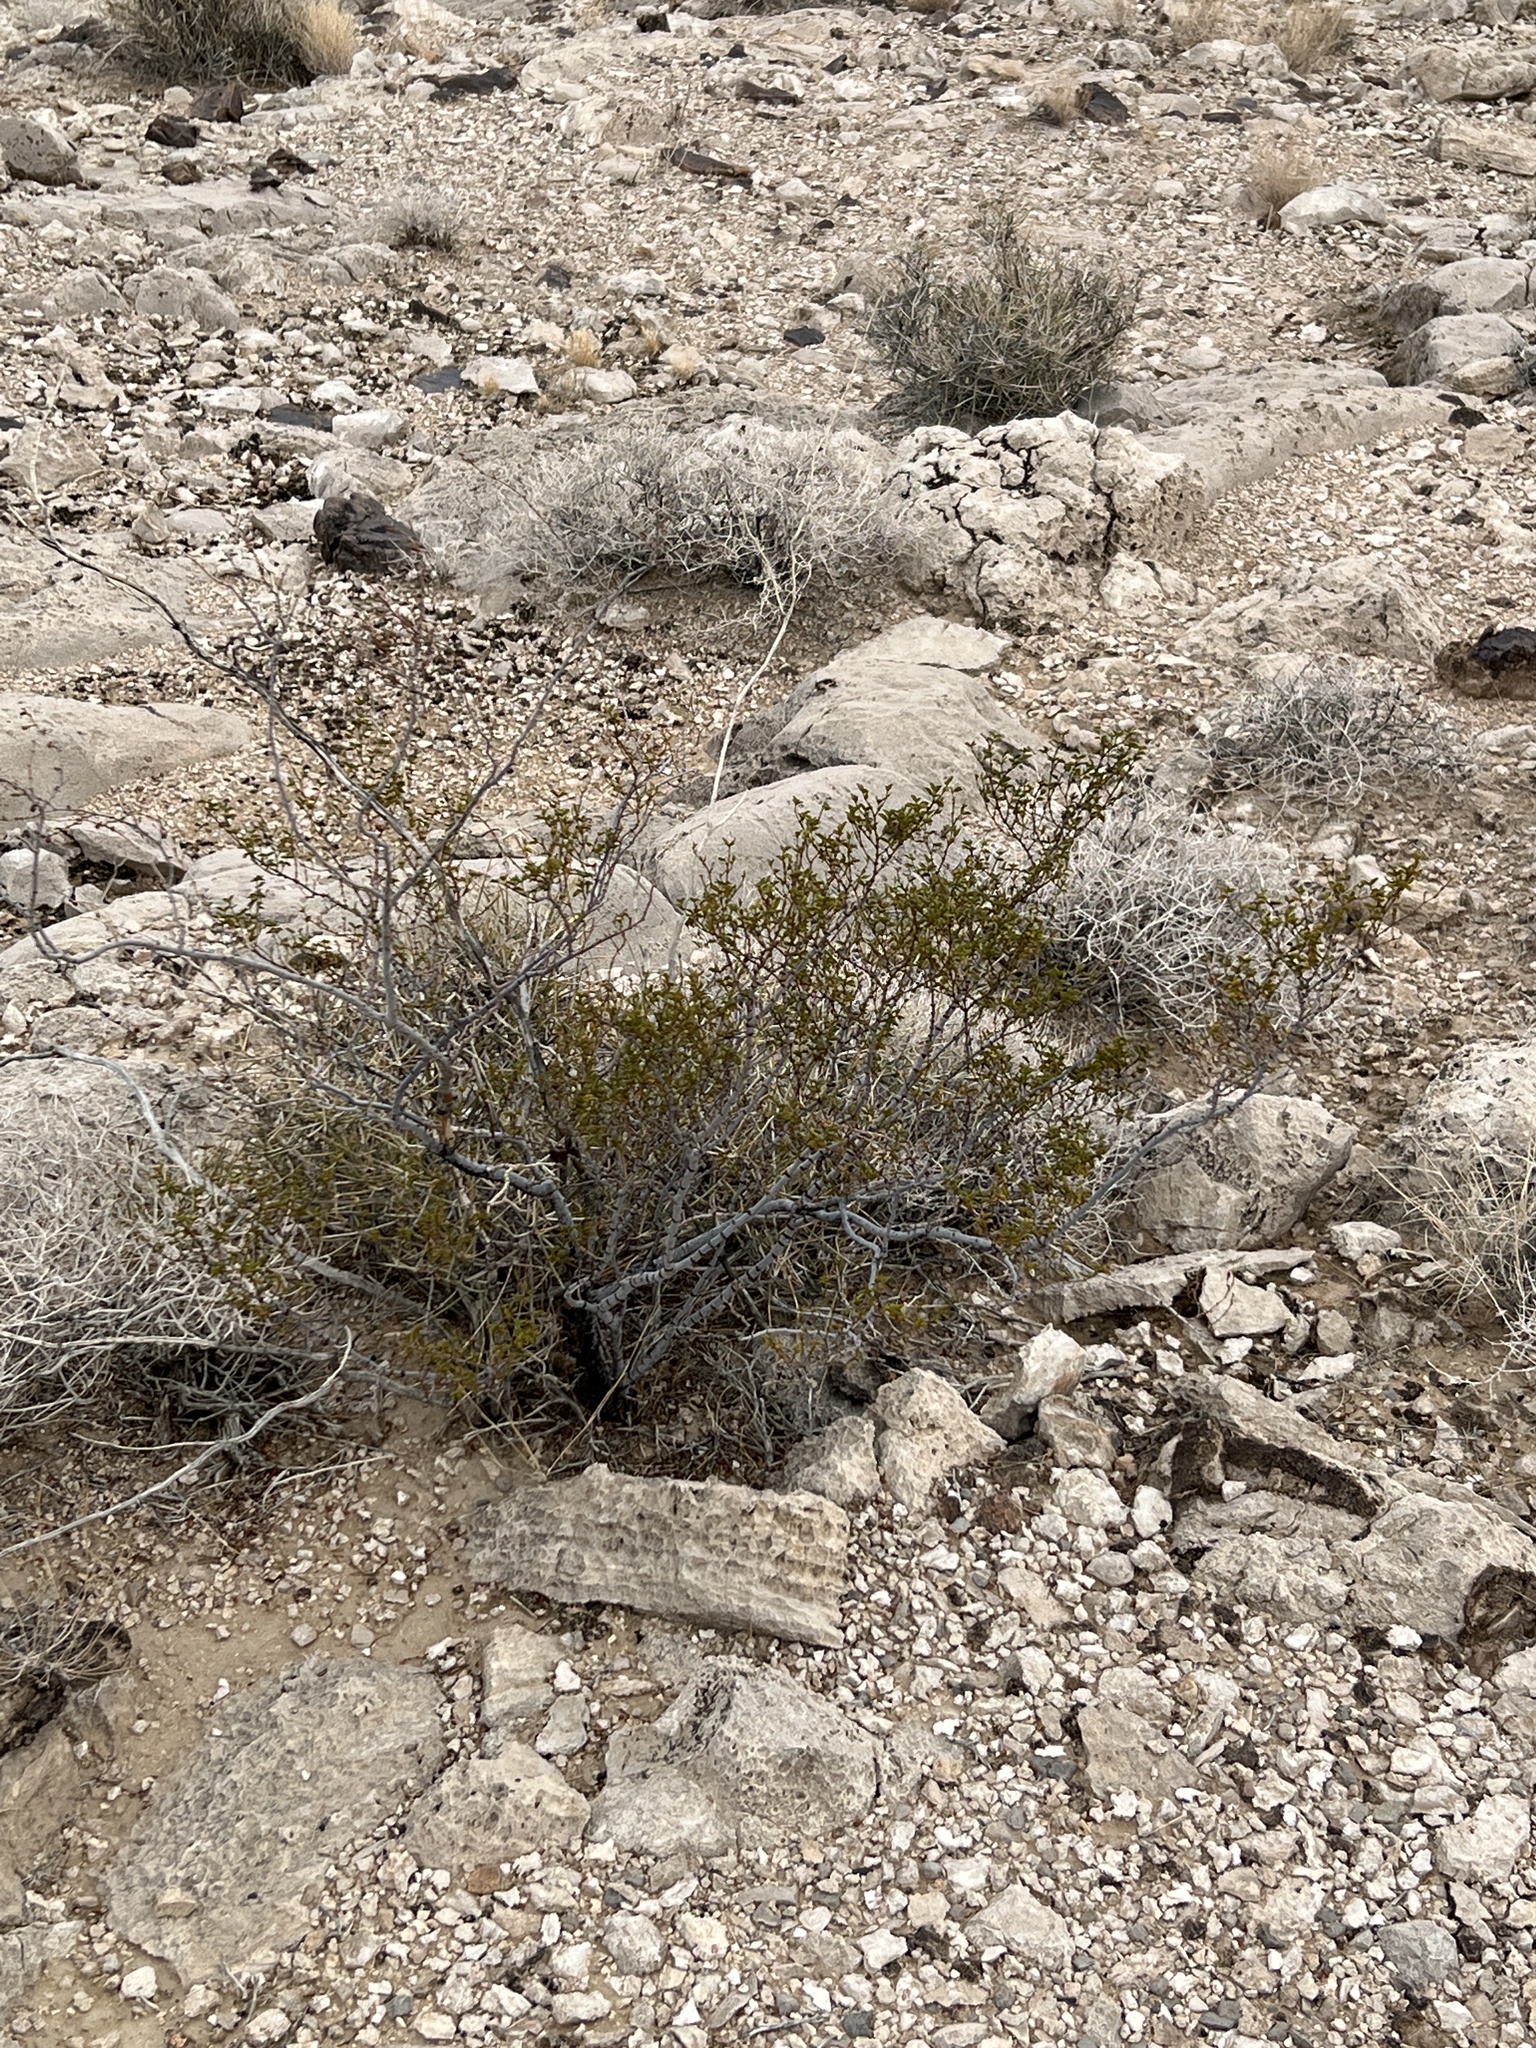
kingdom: Plantae
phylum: Tracheophyta
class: Magnoliopsida
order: Zygophyllales
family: Zygophyllaceae
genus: Larrea
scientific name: Larrea tridentata
